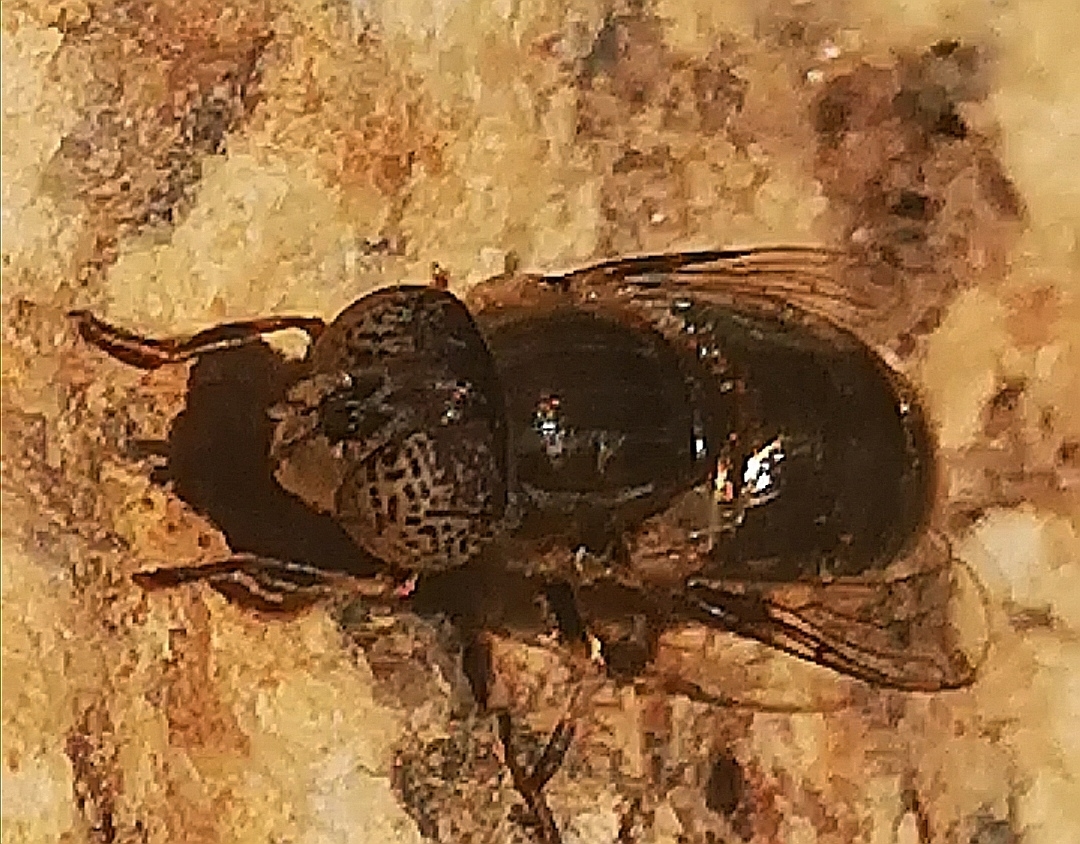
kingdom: Animalia
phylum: Arthropoda
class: Insecta
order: Diptera
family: Syrphidae
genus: Eristalinus
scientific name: Eristalinus aeneus
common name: Syrphid fly
